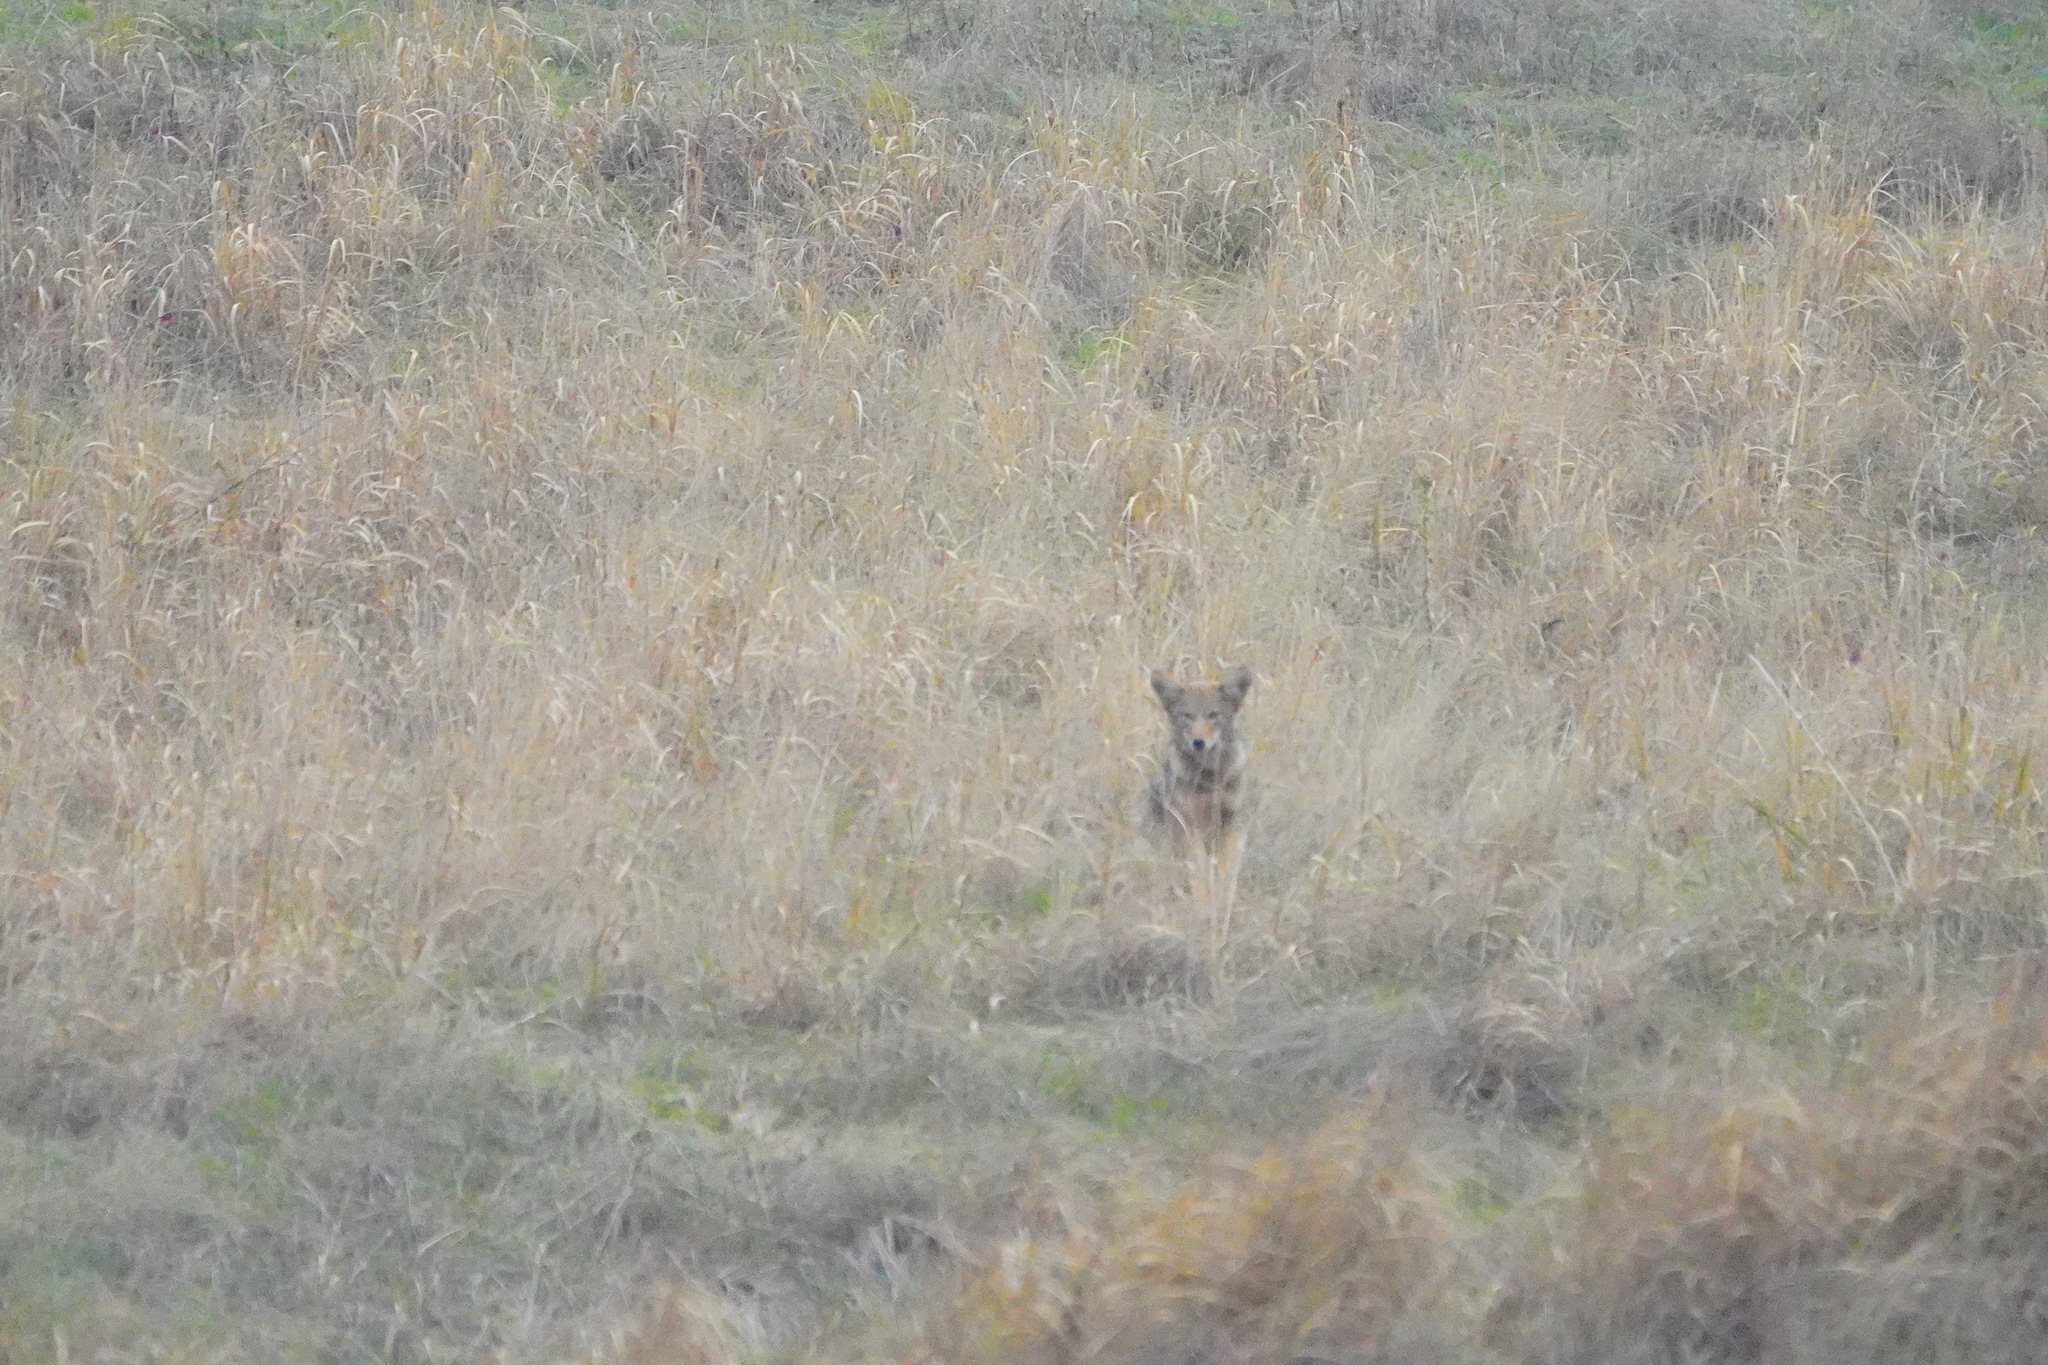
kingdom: Animalia
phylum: Chordata
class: Mammalia
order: Carnivora
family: Canidae
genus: Canis
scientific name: Canis latrans
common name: Coyote
